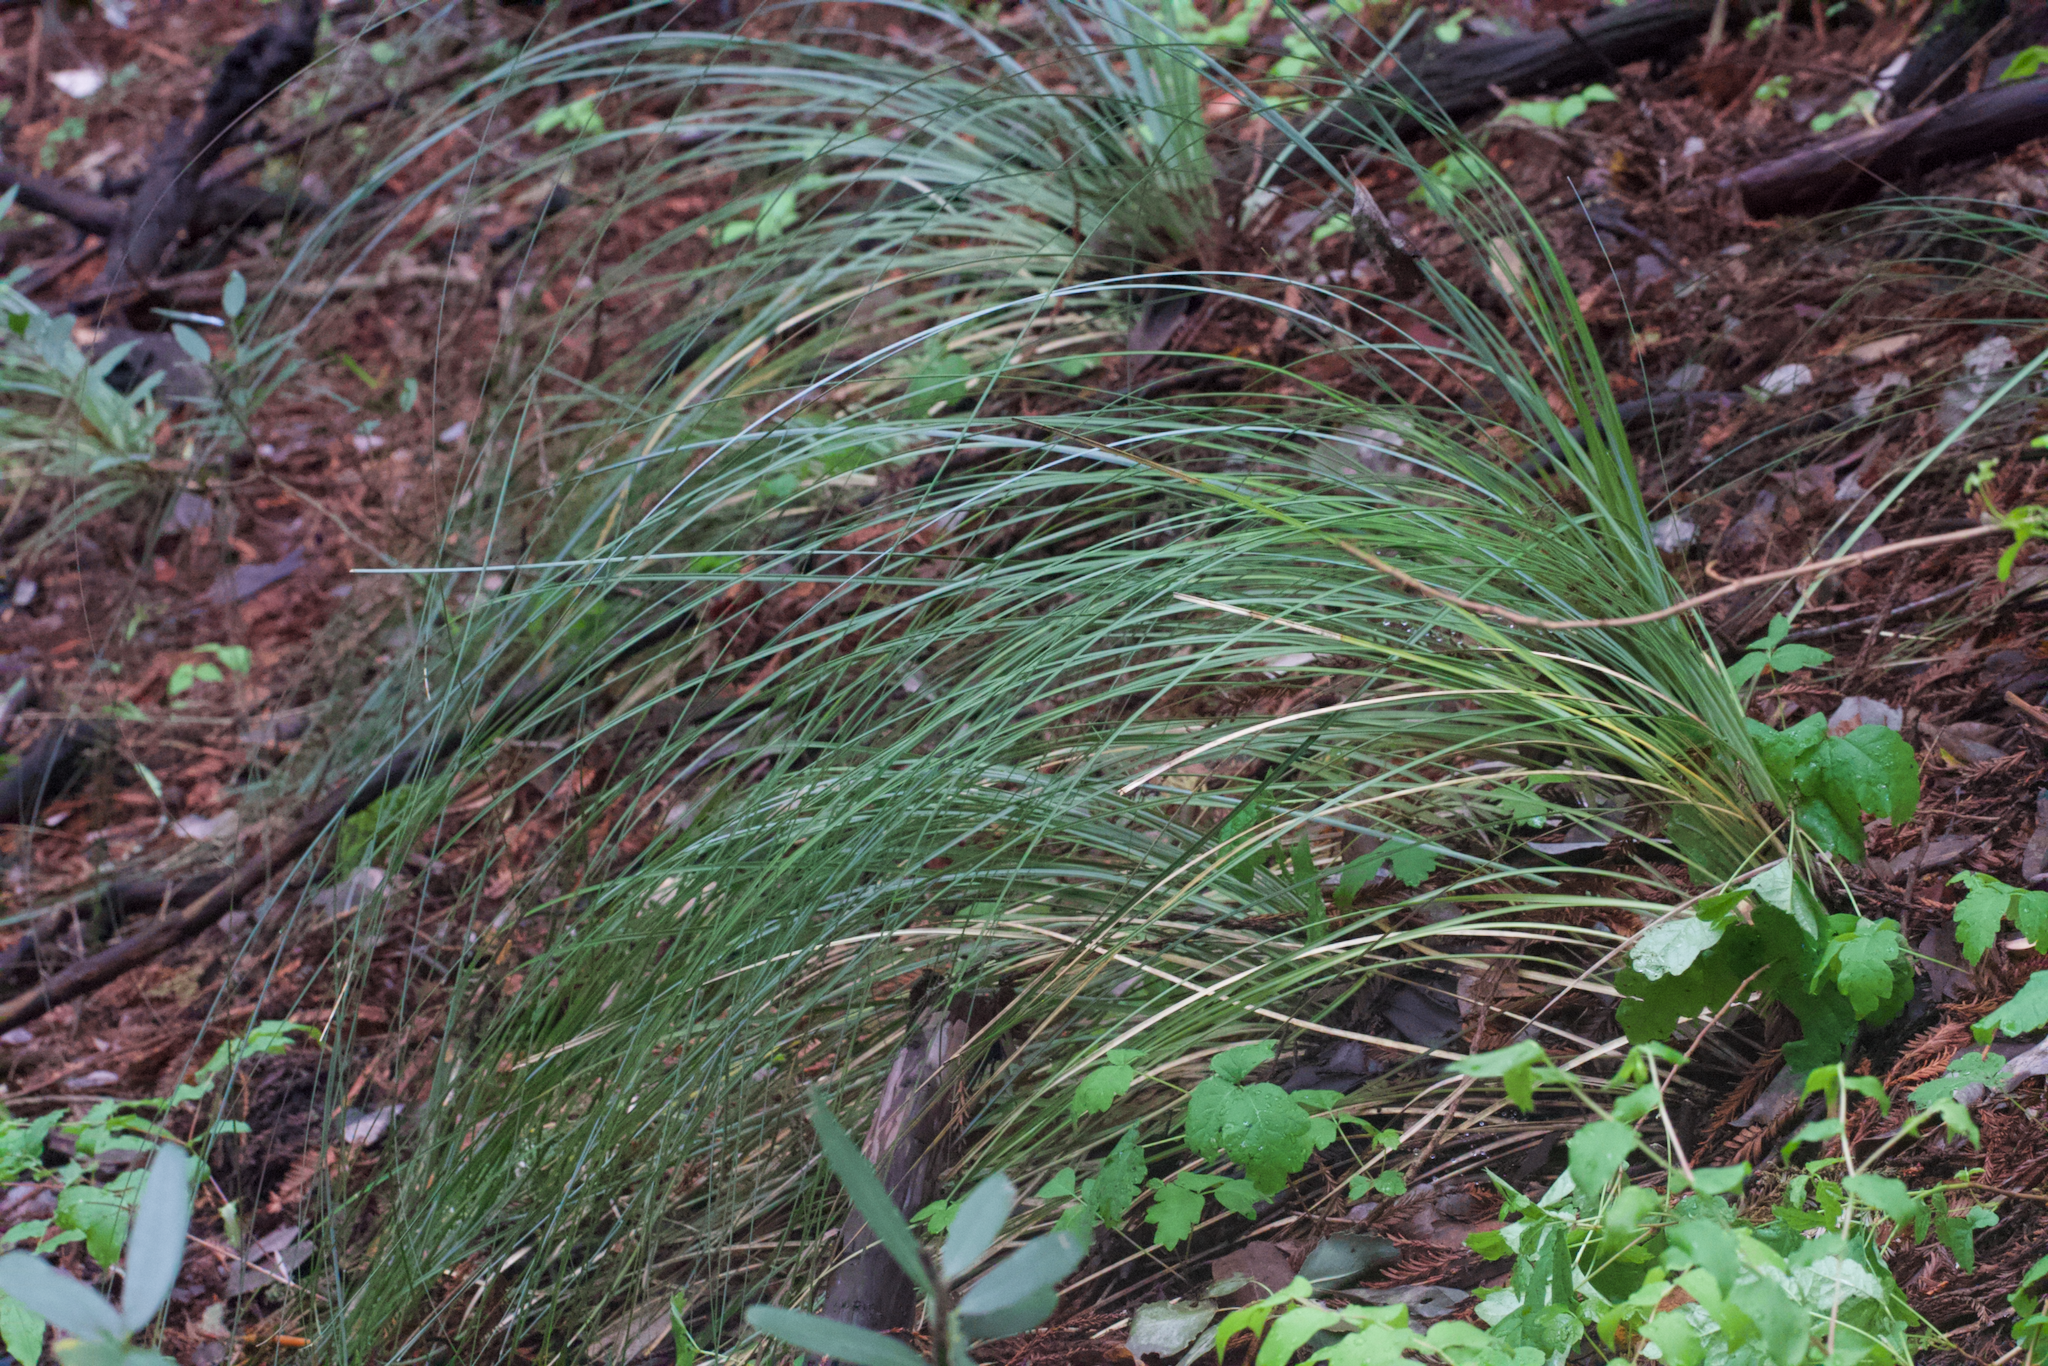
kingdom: Plantae
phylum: Tracheophyta
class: Liliopsida
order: Liliales
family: Melanthiaceae
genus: Xerophyllum
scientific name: Xerophyllum tenax
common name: Bear-grass
